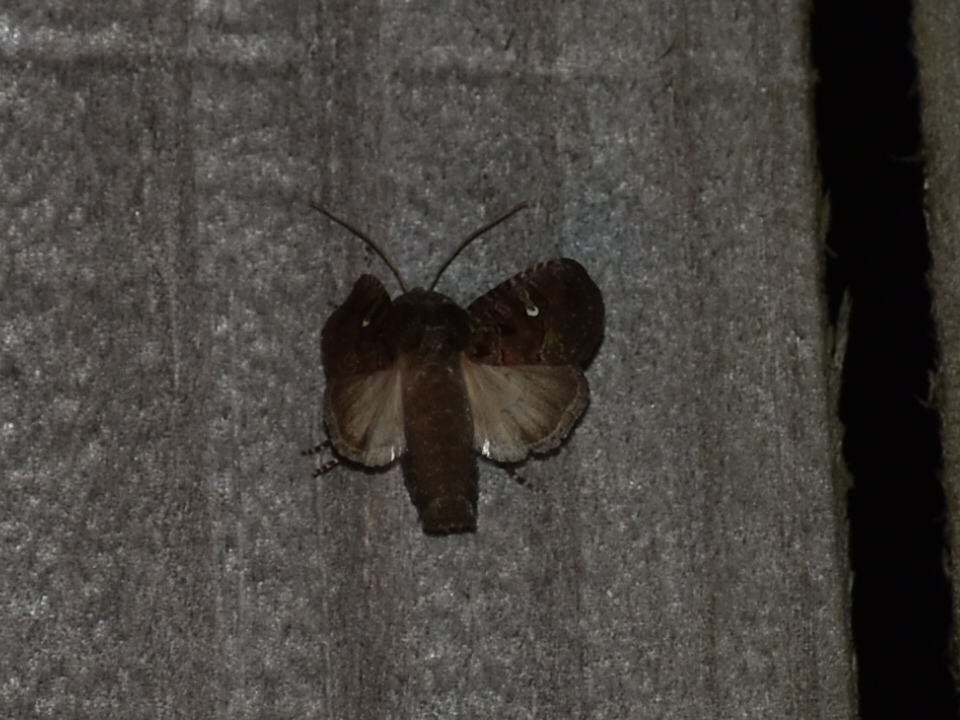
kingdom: Animalia
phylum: Arthropoda
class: Insecta
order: Lepidoptera
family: Noctuidae
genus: Lacinipolia
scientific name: Lacinipolia renigera
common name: Kidney-spotted minor
